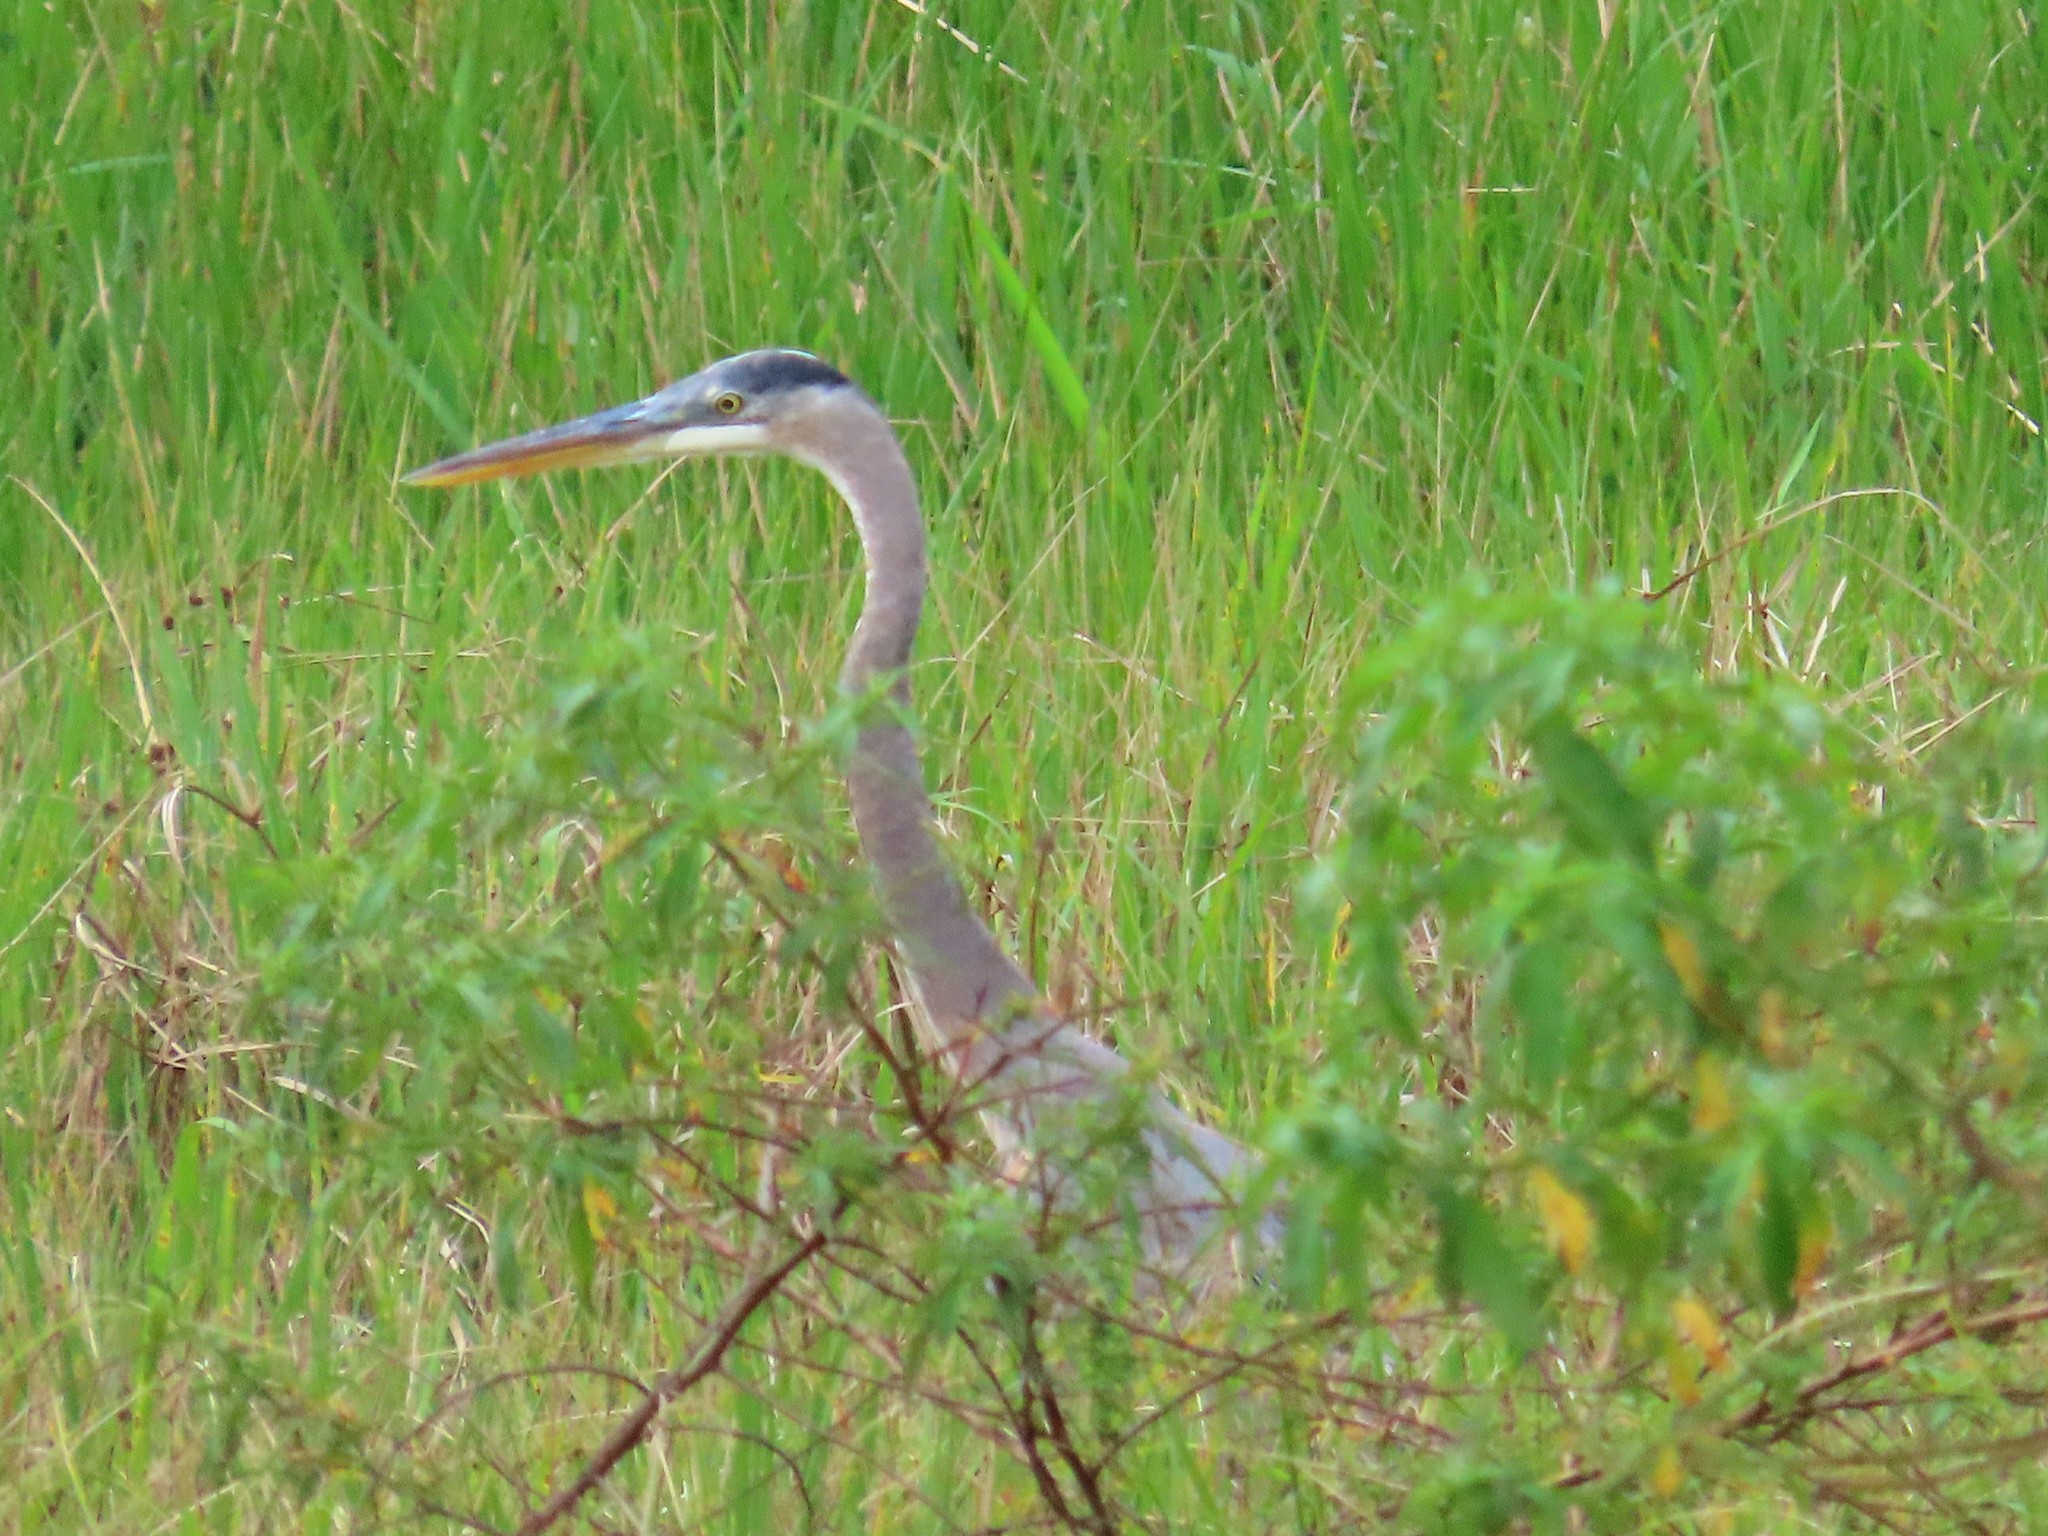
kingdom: Animalia
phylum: Chordata
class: Aves
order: Pelecaniformes
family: Ardeidae
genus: Ardea
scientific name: Ardea herodias
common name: Great blue heron
